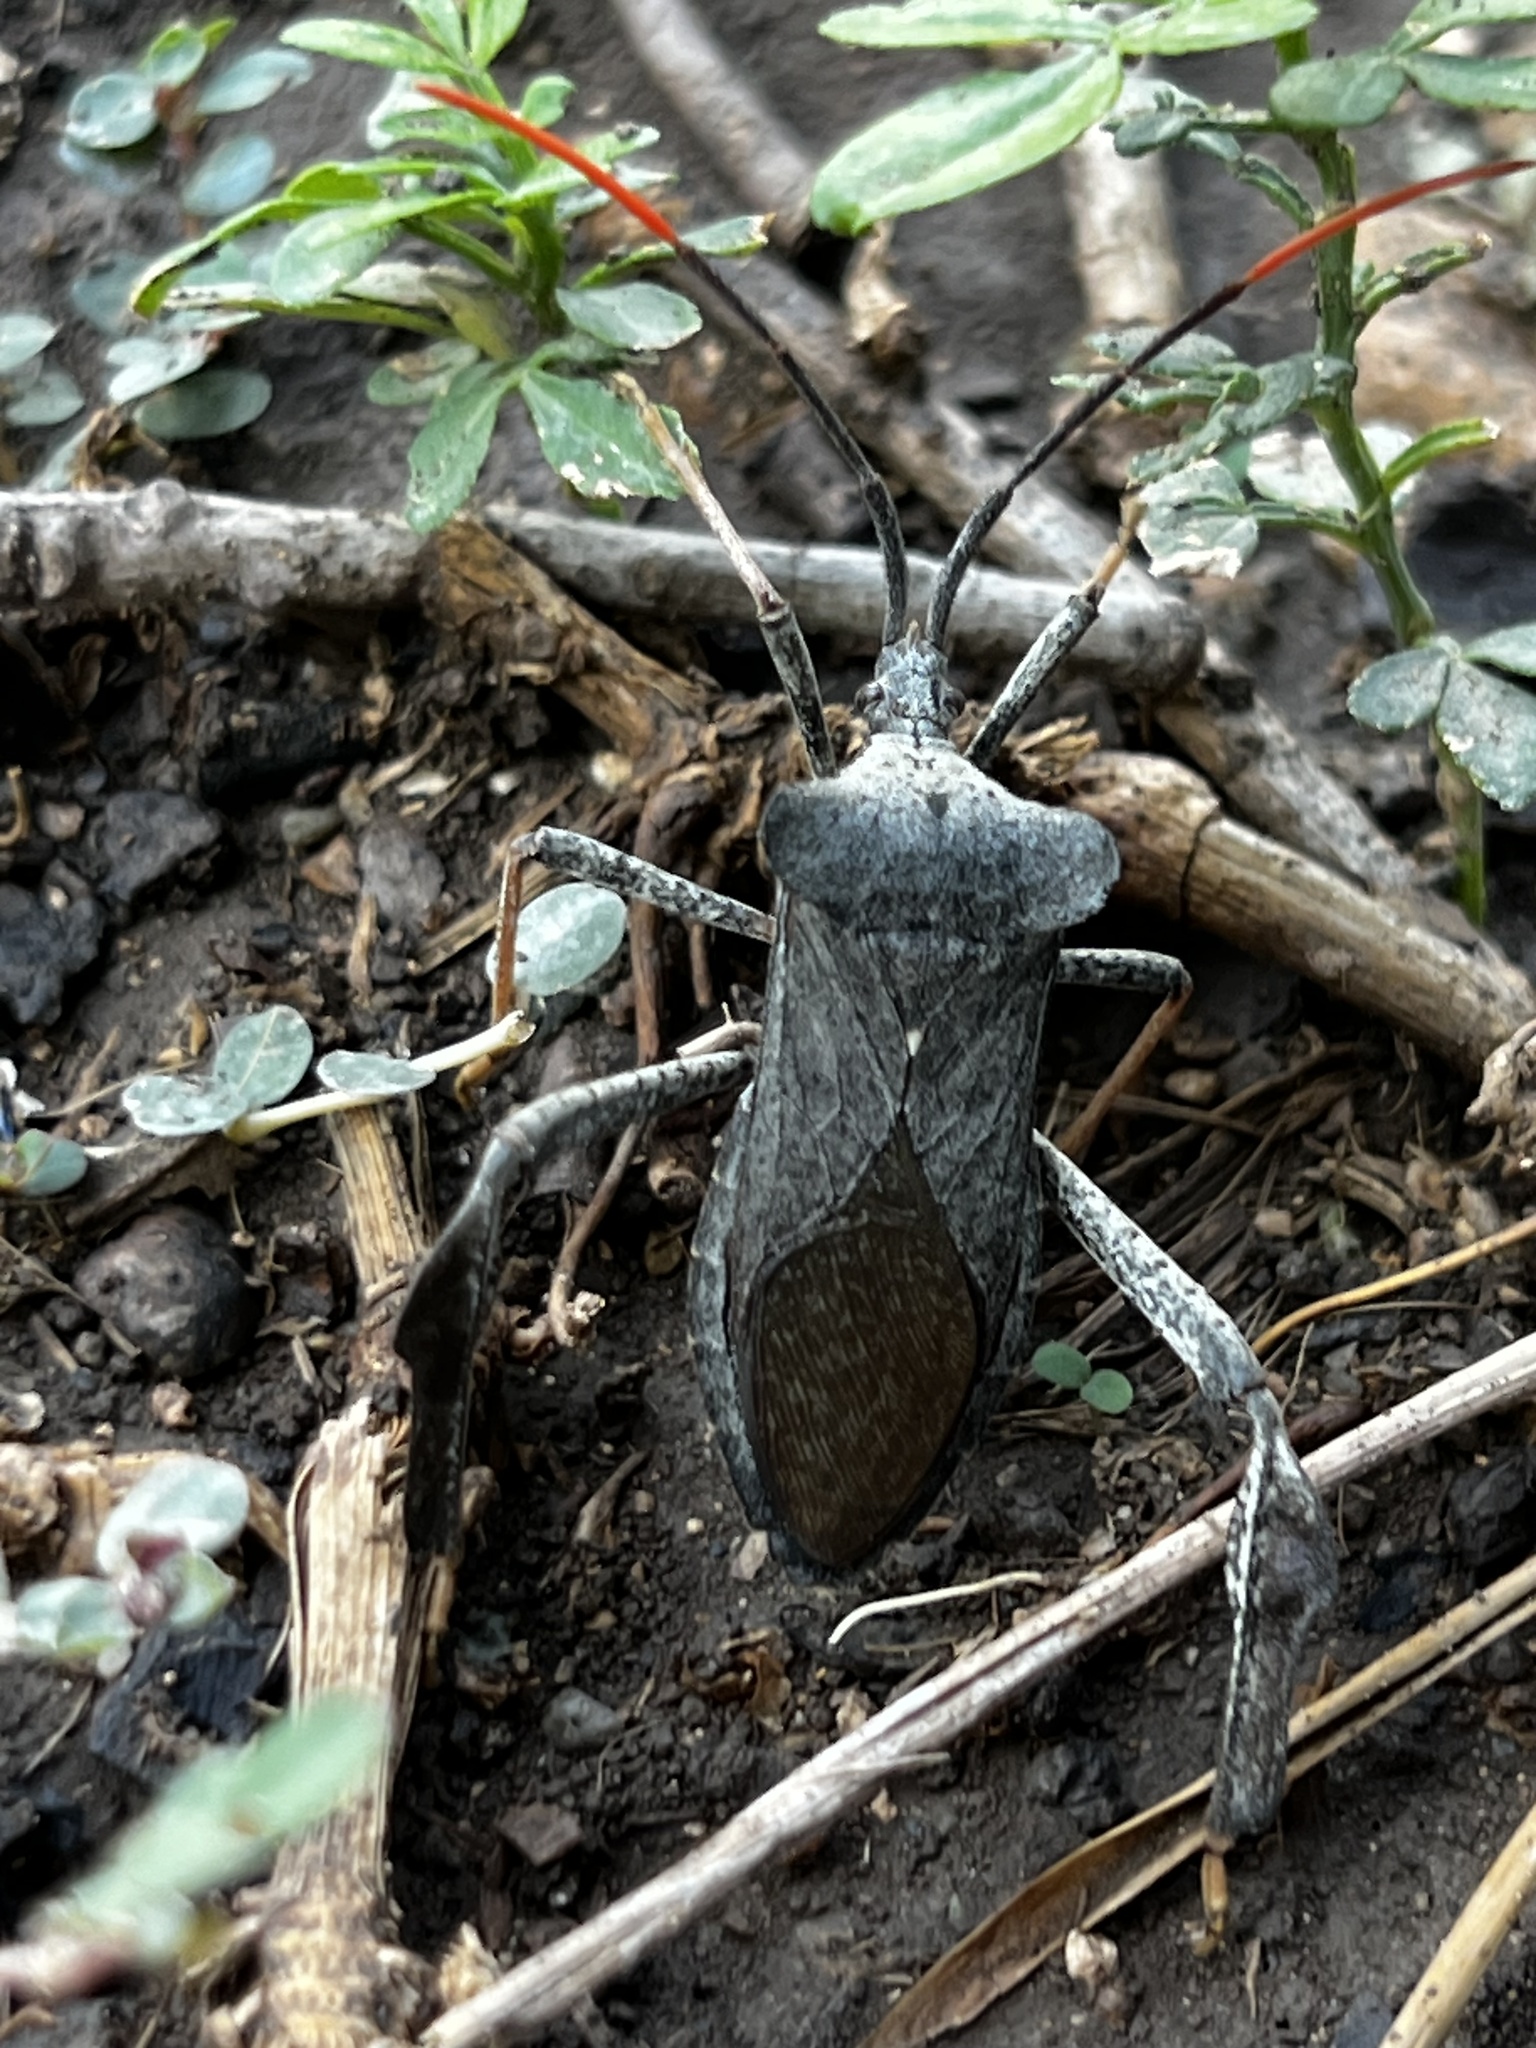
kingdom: Animalia
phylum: Arthropoda
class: Insecta
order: Hemiptera
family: Coreidae
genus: Acanthocephala
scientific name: Acanthocephala alata
